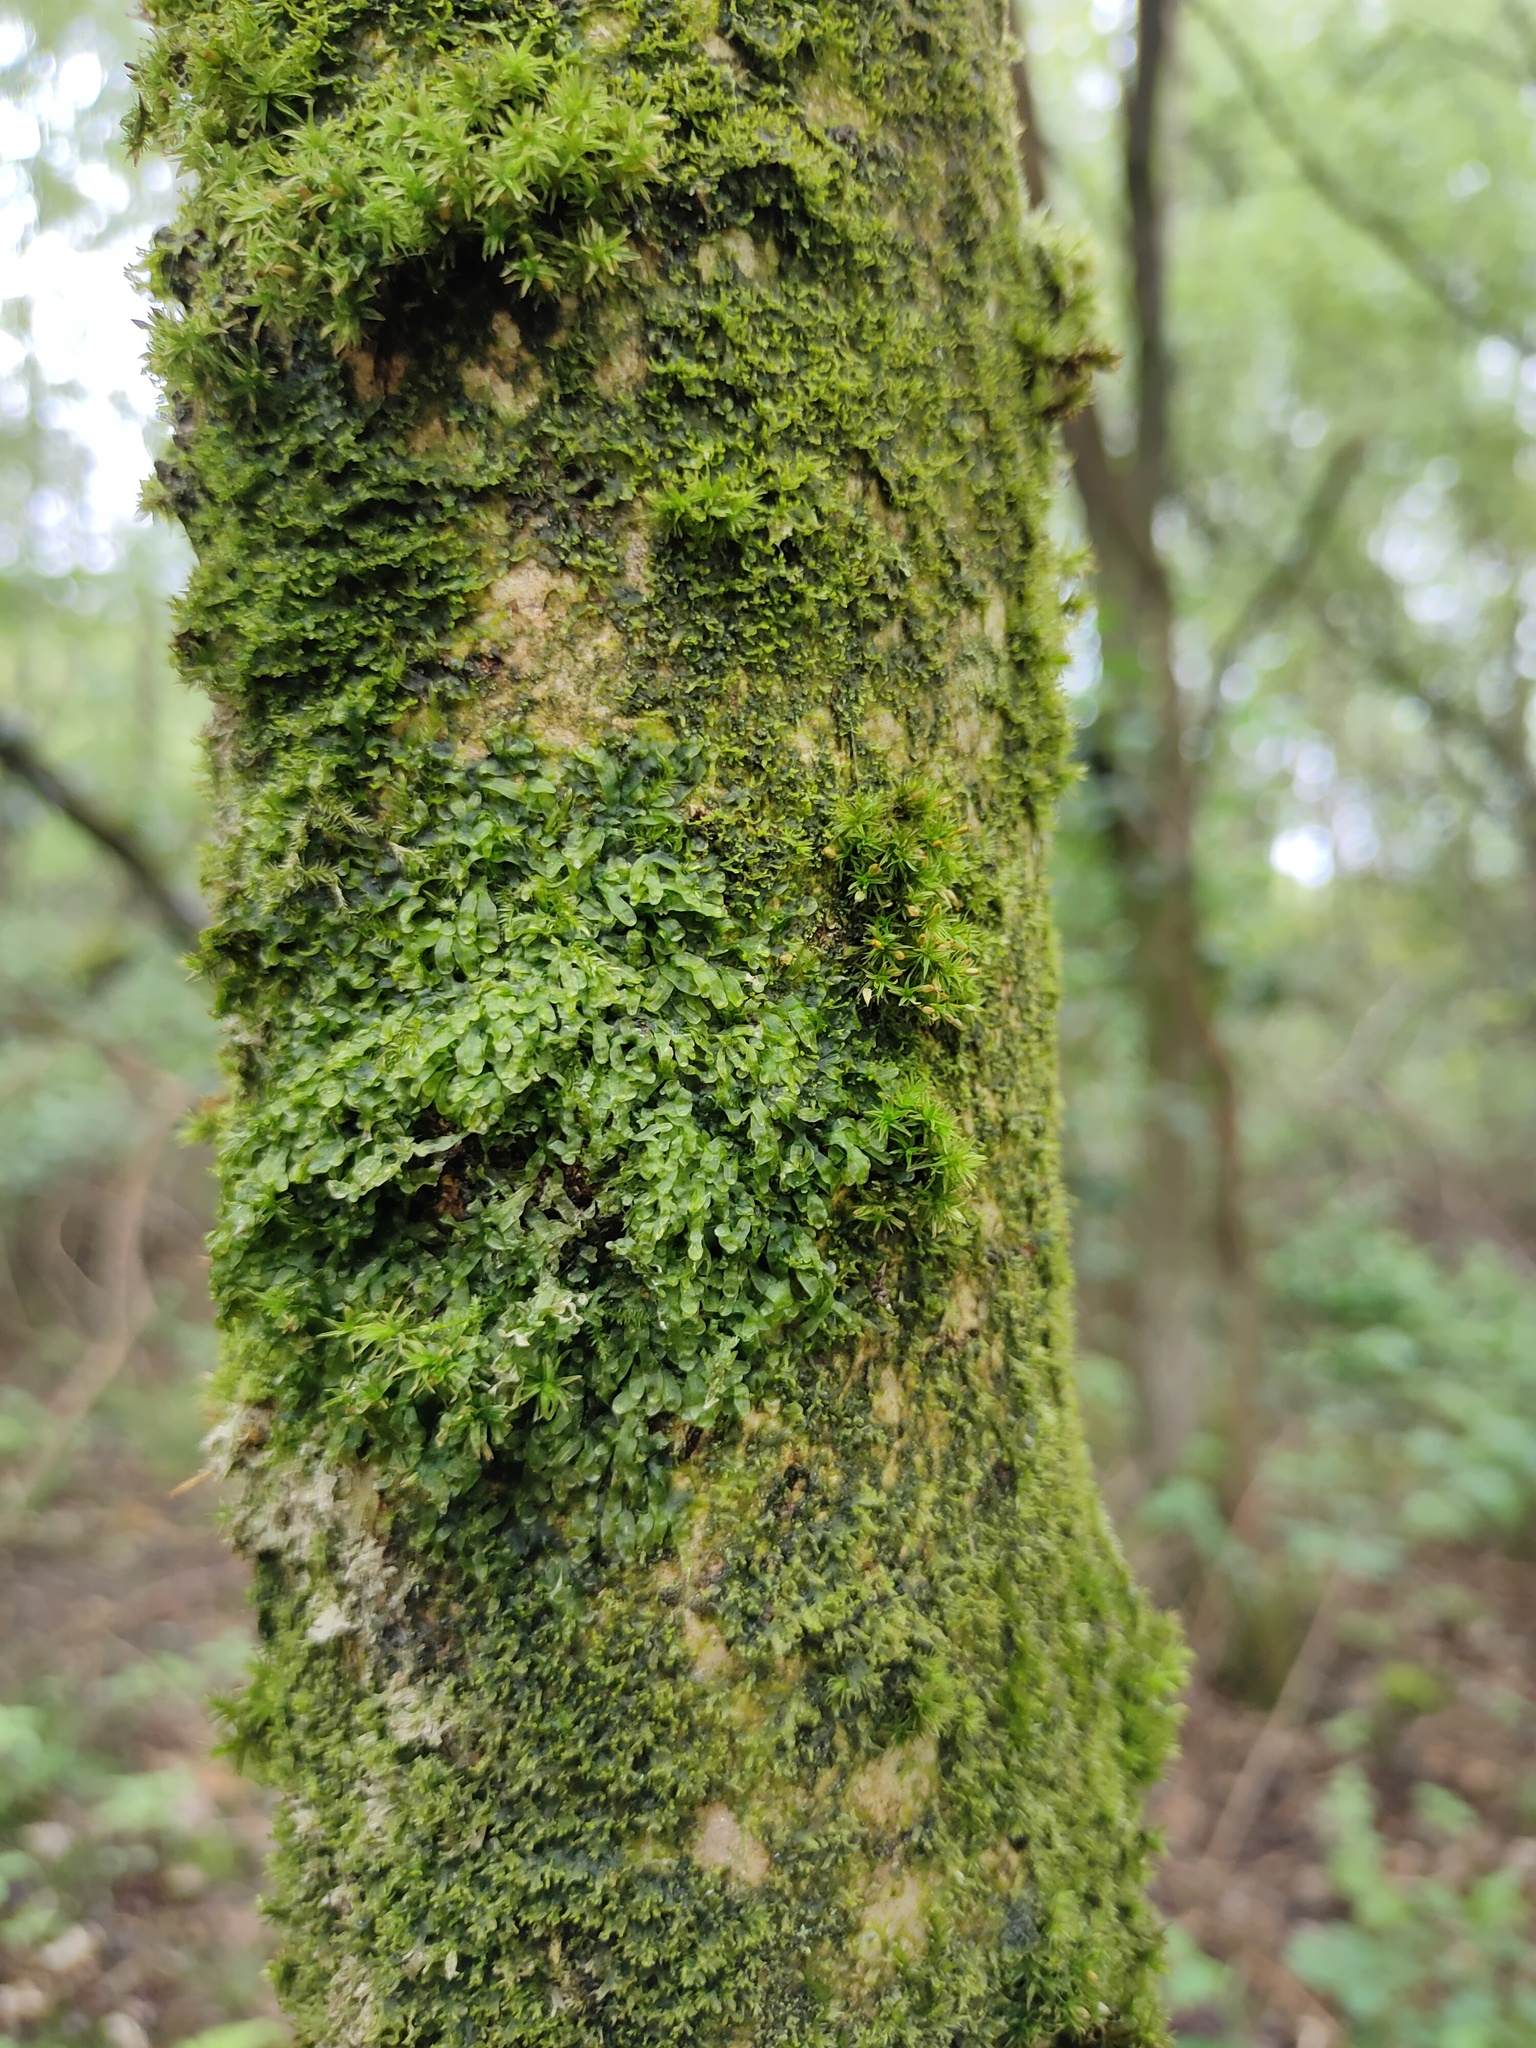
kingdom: Plantae
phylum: Marchantiophyta
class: Jungermanniopsida
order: Metzgeriales
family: Metzgeriaceae
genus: Metzgeria
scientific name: Metzgeria furcata
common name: Forked veilwort
